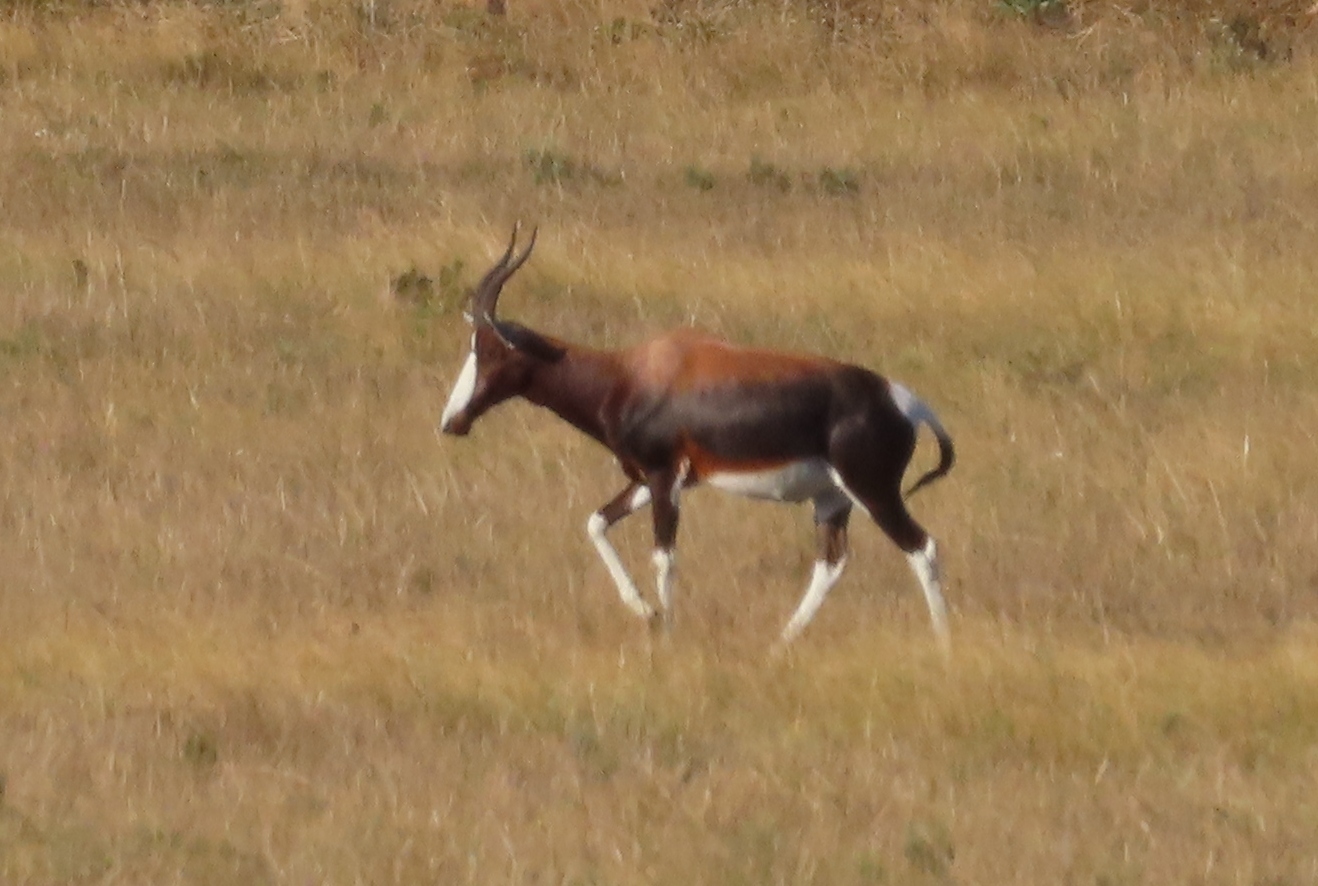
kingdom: Animalia
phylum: Chordata
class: Mammalia
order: Artiodactyla
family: Bovidae
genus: Damaliscus
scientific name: Damaliscus pygargus
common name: Bontebok
